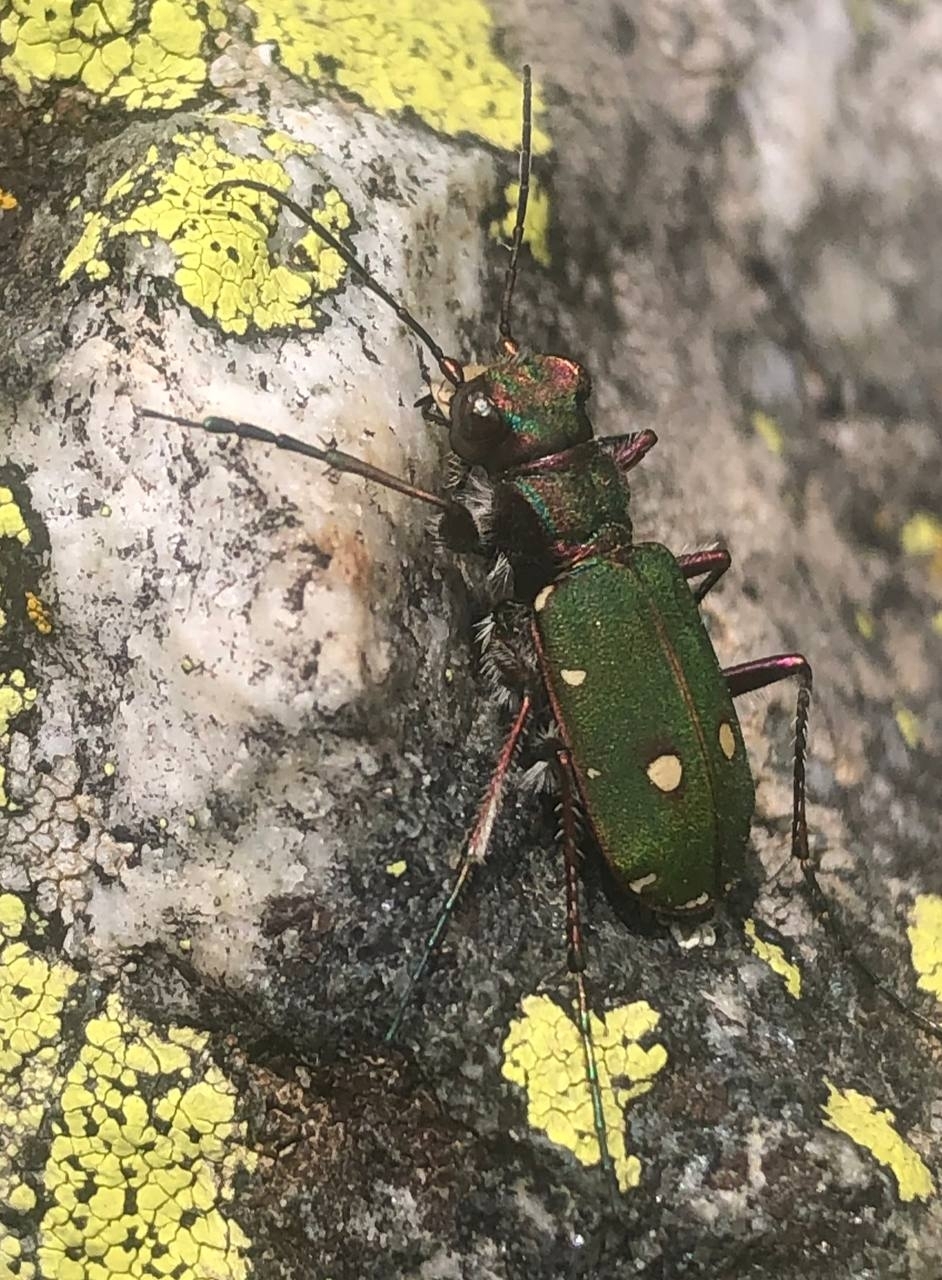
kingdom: Animalia
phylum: Arthropoda
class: Insecta
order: Coleoptera
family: Carabidae
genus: Cicindela
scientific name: Cicindela campestris
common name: Common tiger beetle
